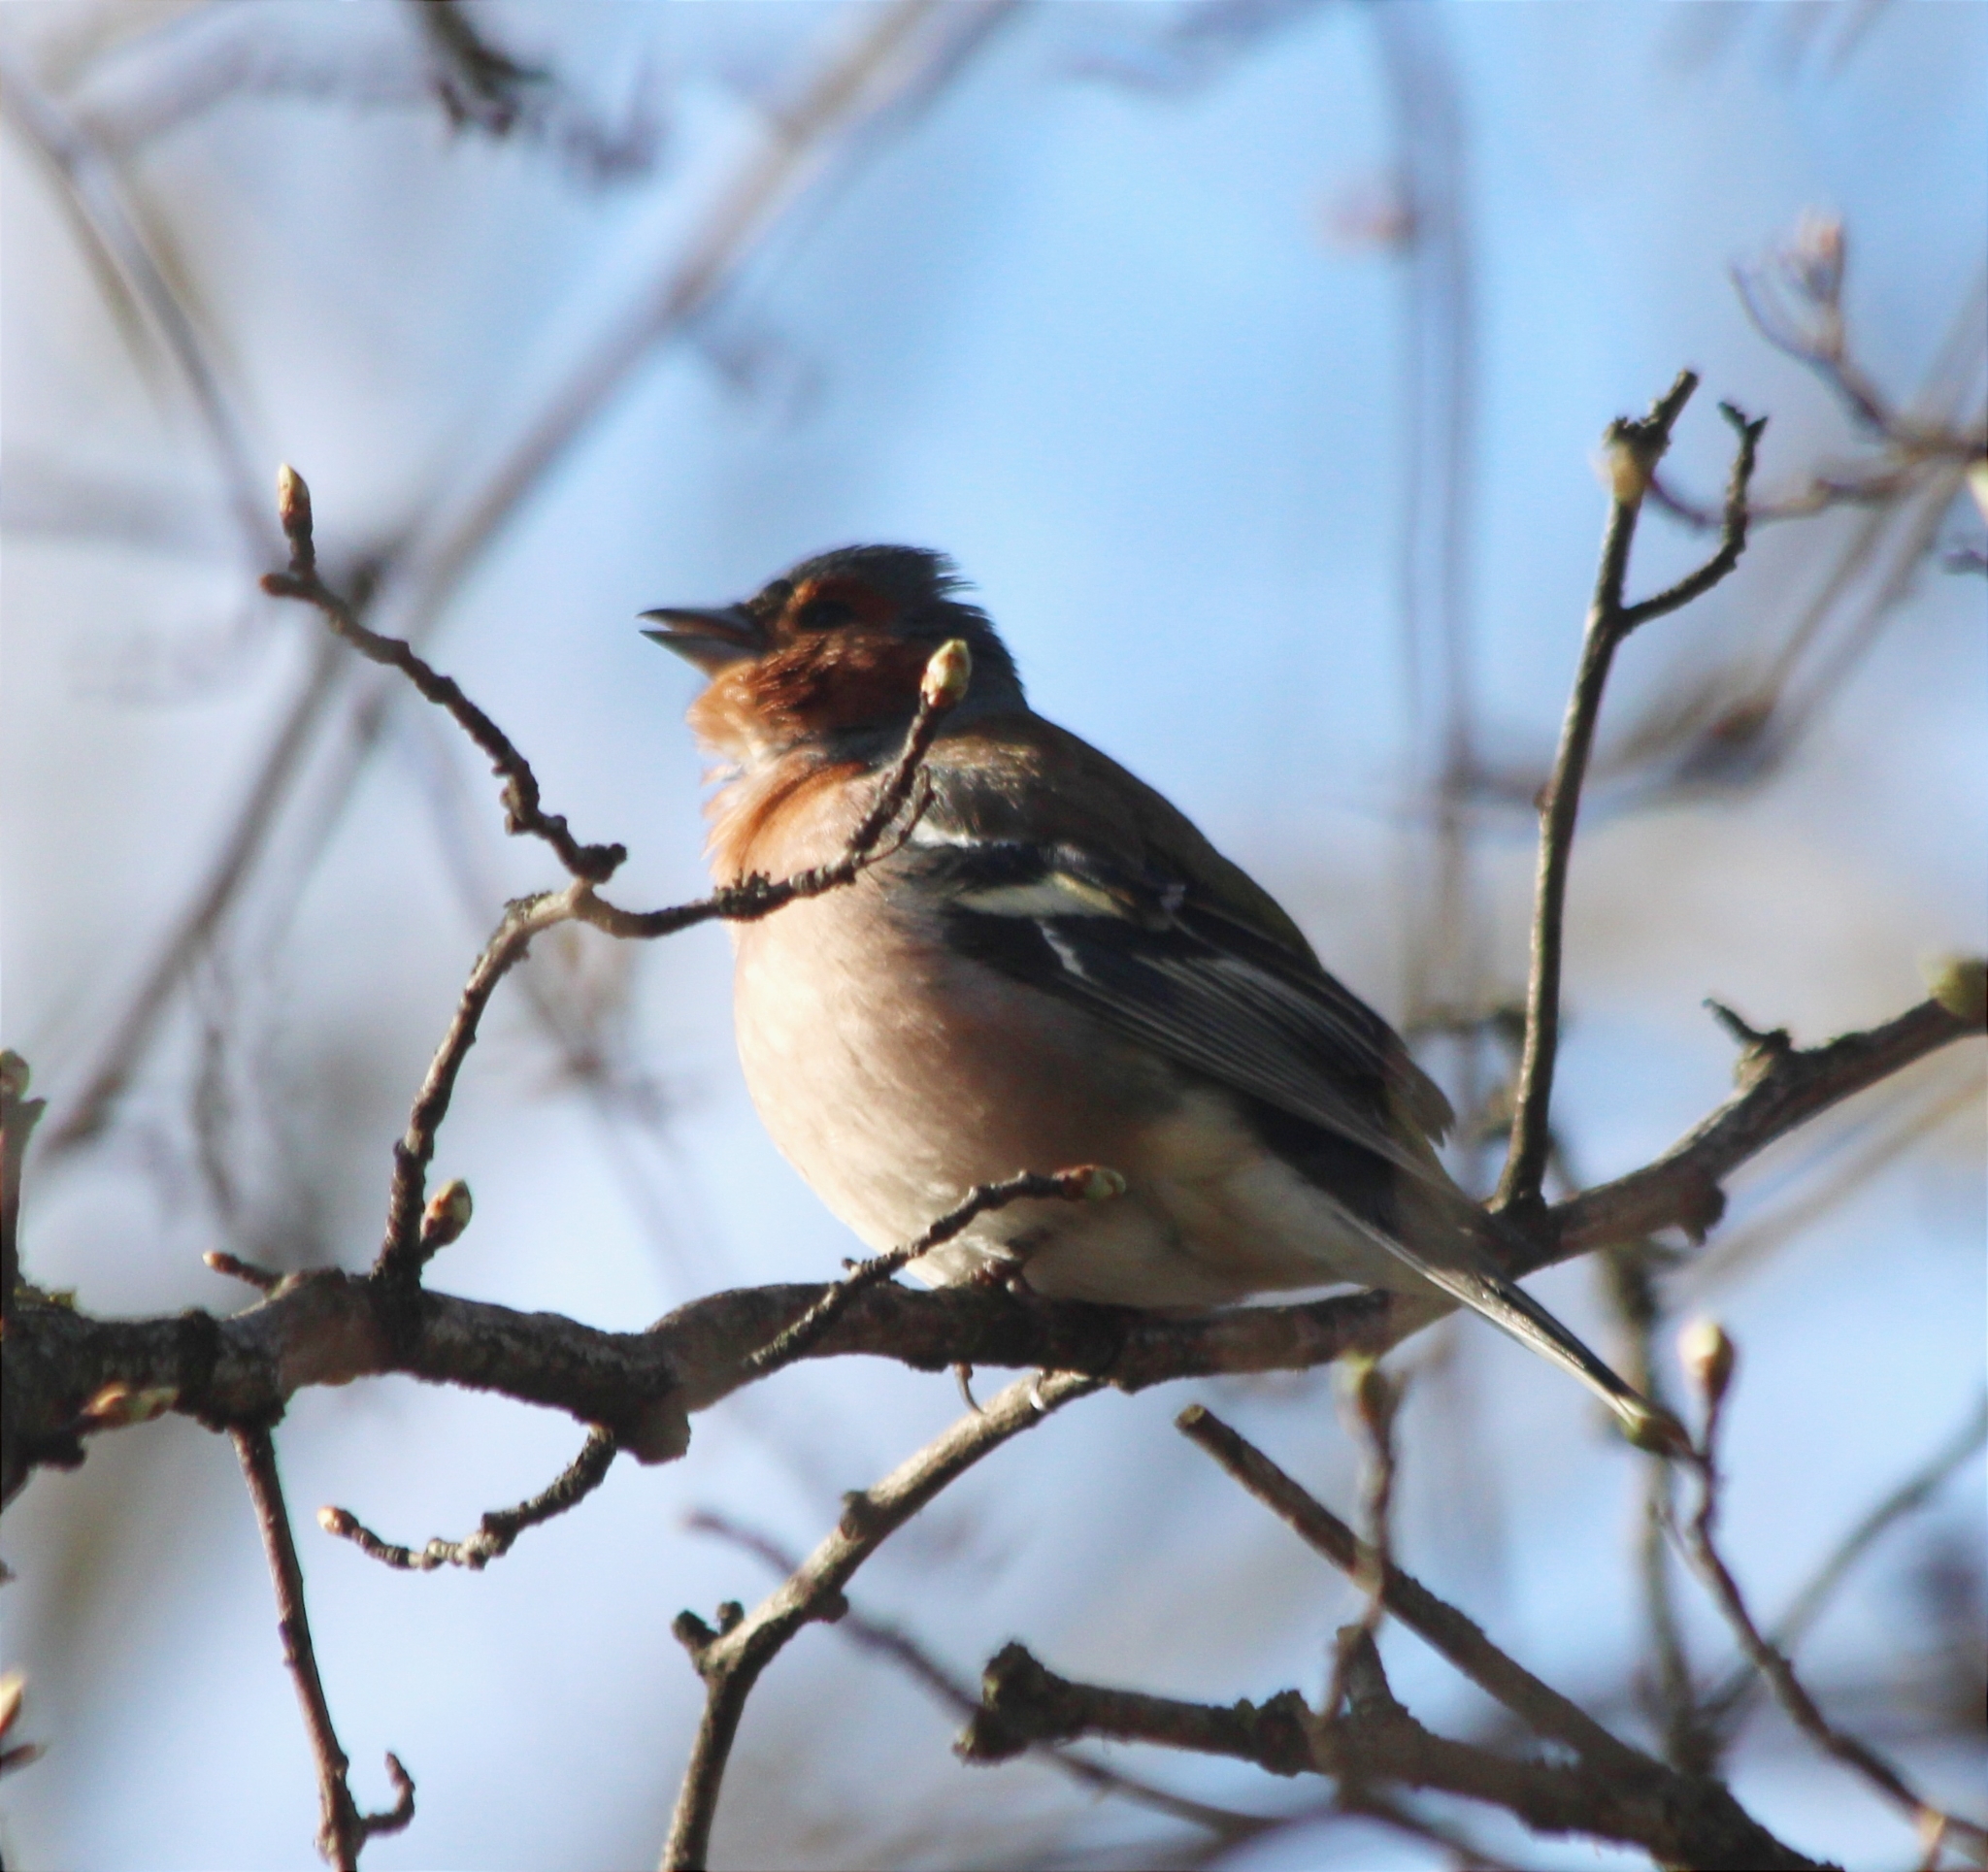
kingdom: Animalia
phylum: Chordata
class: Aves
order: Passeriformes
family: Fringillidae
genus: Fringilla
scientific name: Fringilla coelebs
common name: Common chaffinch
